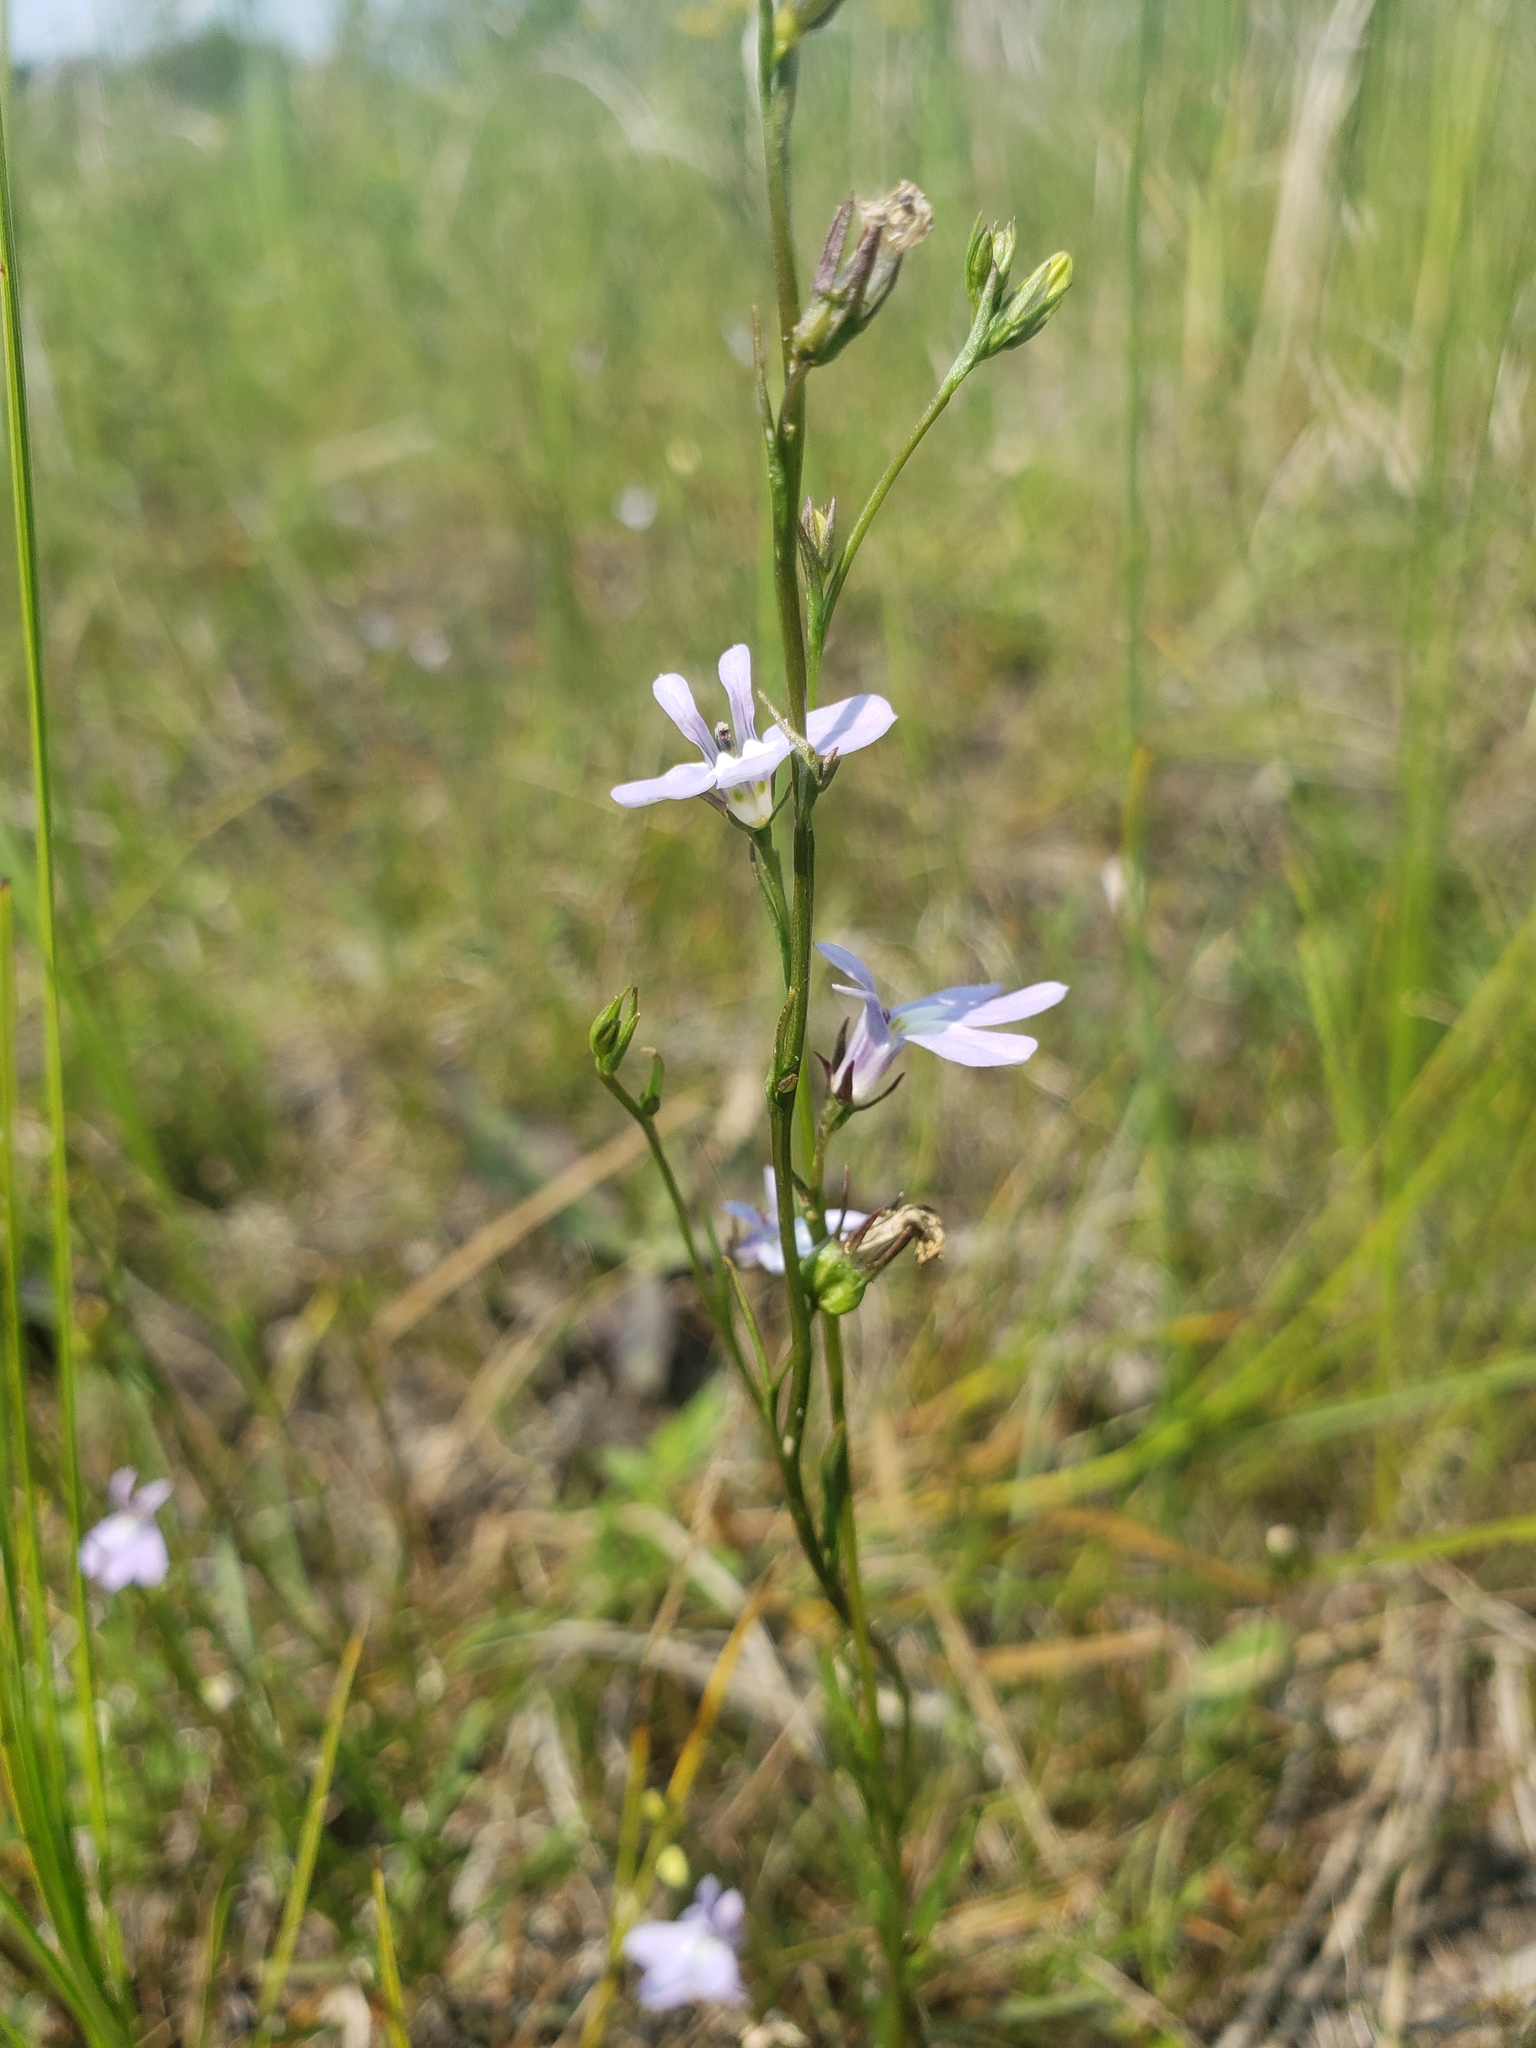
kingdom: Plantae
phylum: Tracheophyta
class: Magnoliopsida
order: Asterales
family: Campanulaceae
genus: Lobelia
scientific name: Lobelia kalmii
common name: Kalm's lobelia
